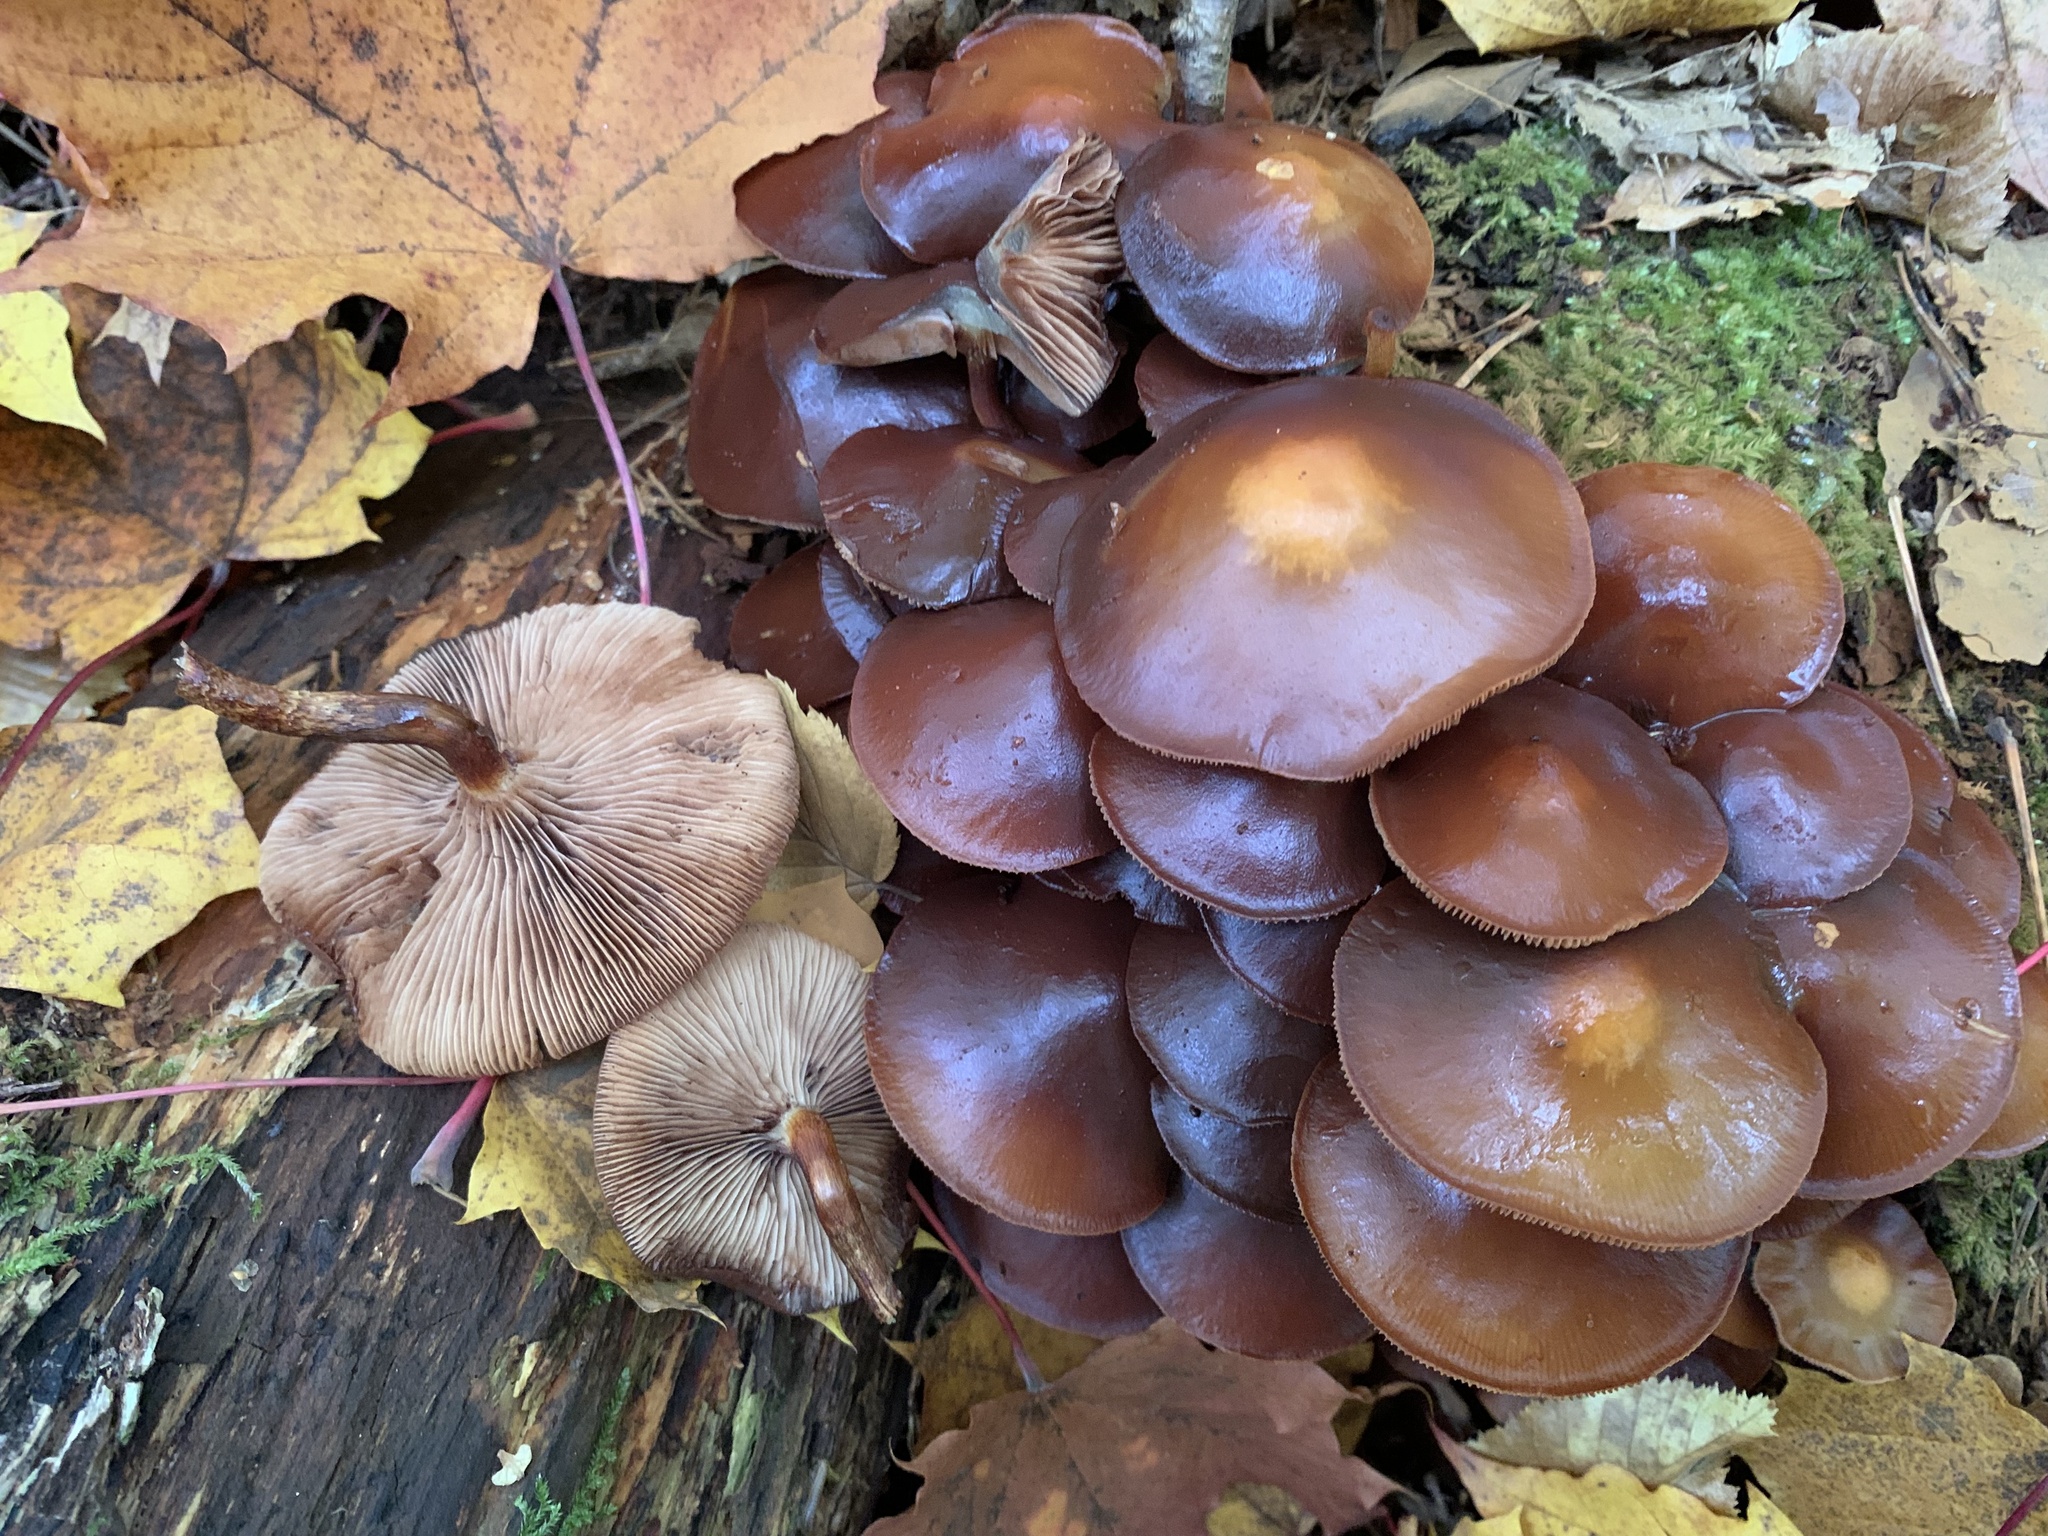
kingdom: Fungi
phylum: Basidiomycota
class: Agaricomycetes
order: Agaricales
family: Strophariaceae
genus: Kuehneromyces
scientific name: Kuehneromyces mutabilis
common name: Sheathed woodtuft
